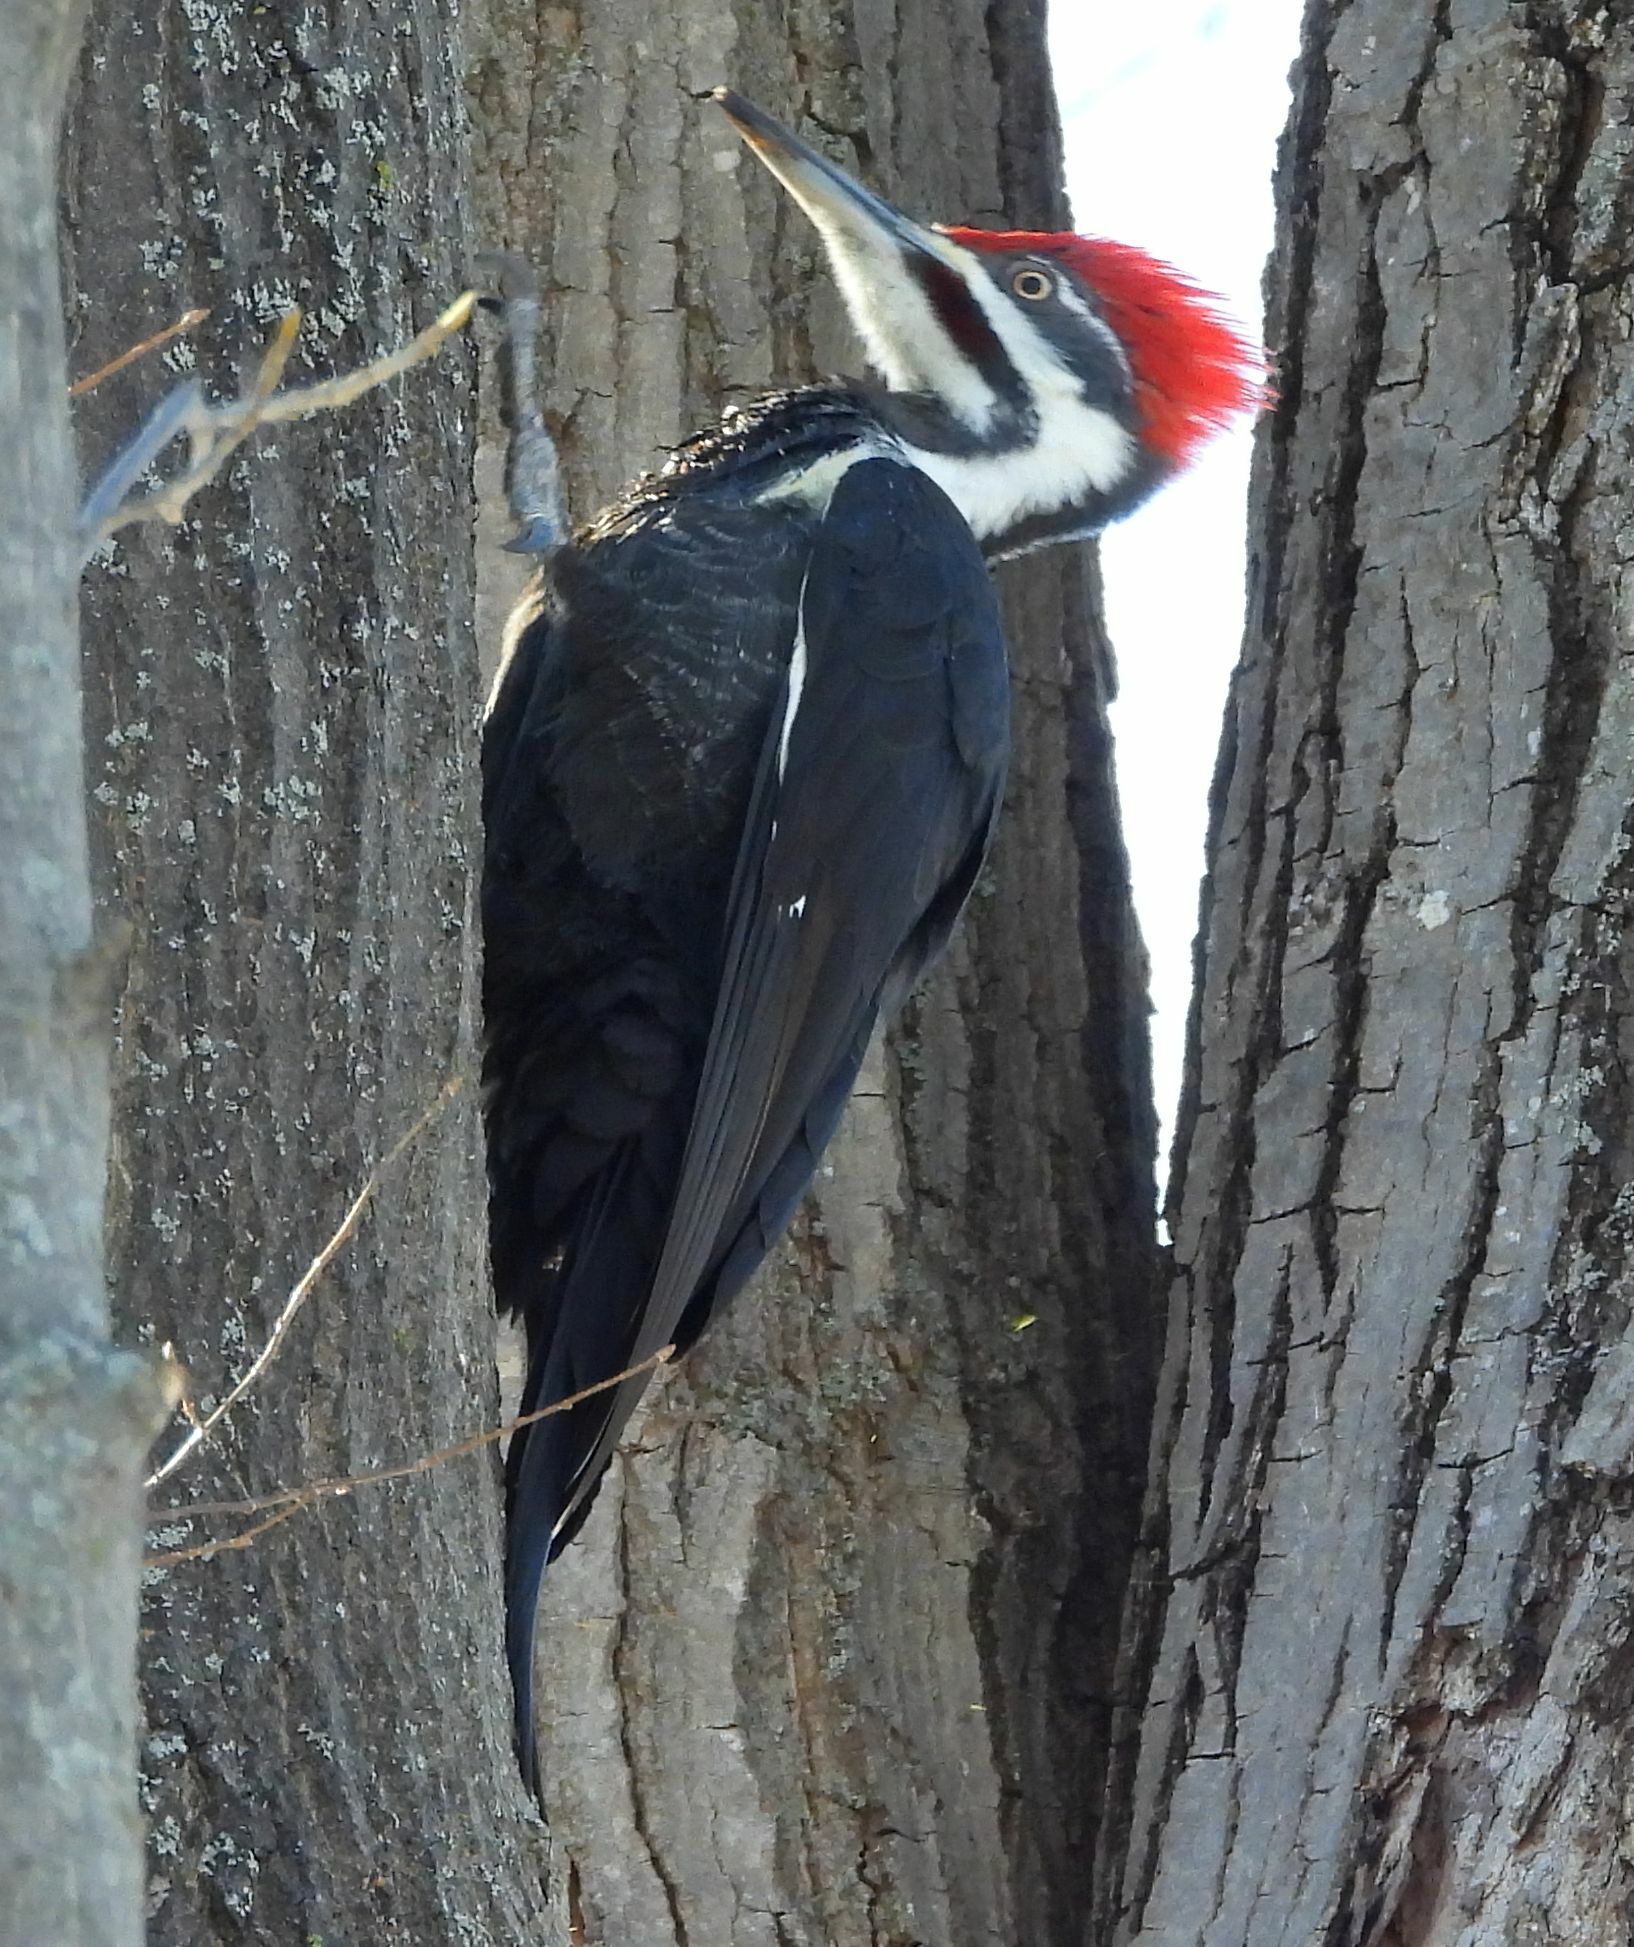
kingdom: Animalia
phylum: Chordata
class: Aves
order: Piciformes
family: Picidae
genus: Dryocopus
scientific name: Dryocopus pileatus
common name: Pileated woodpecker
